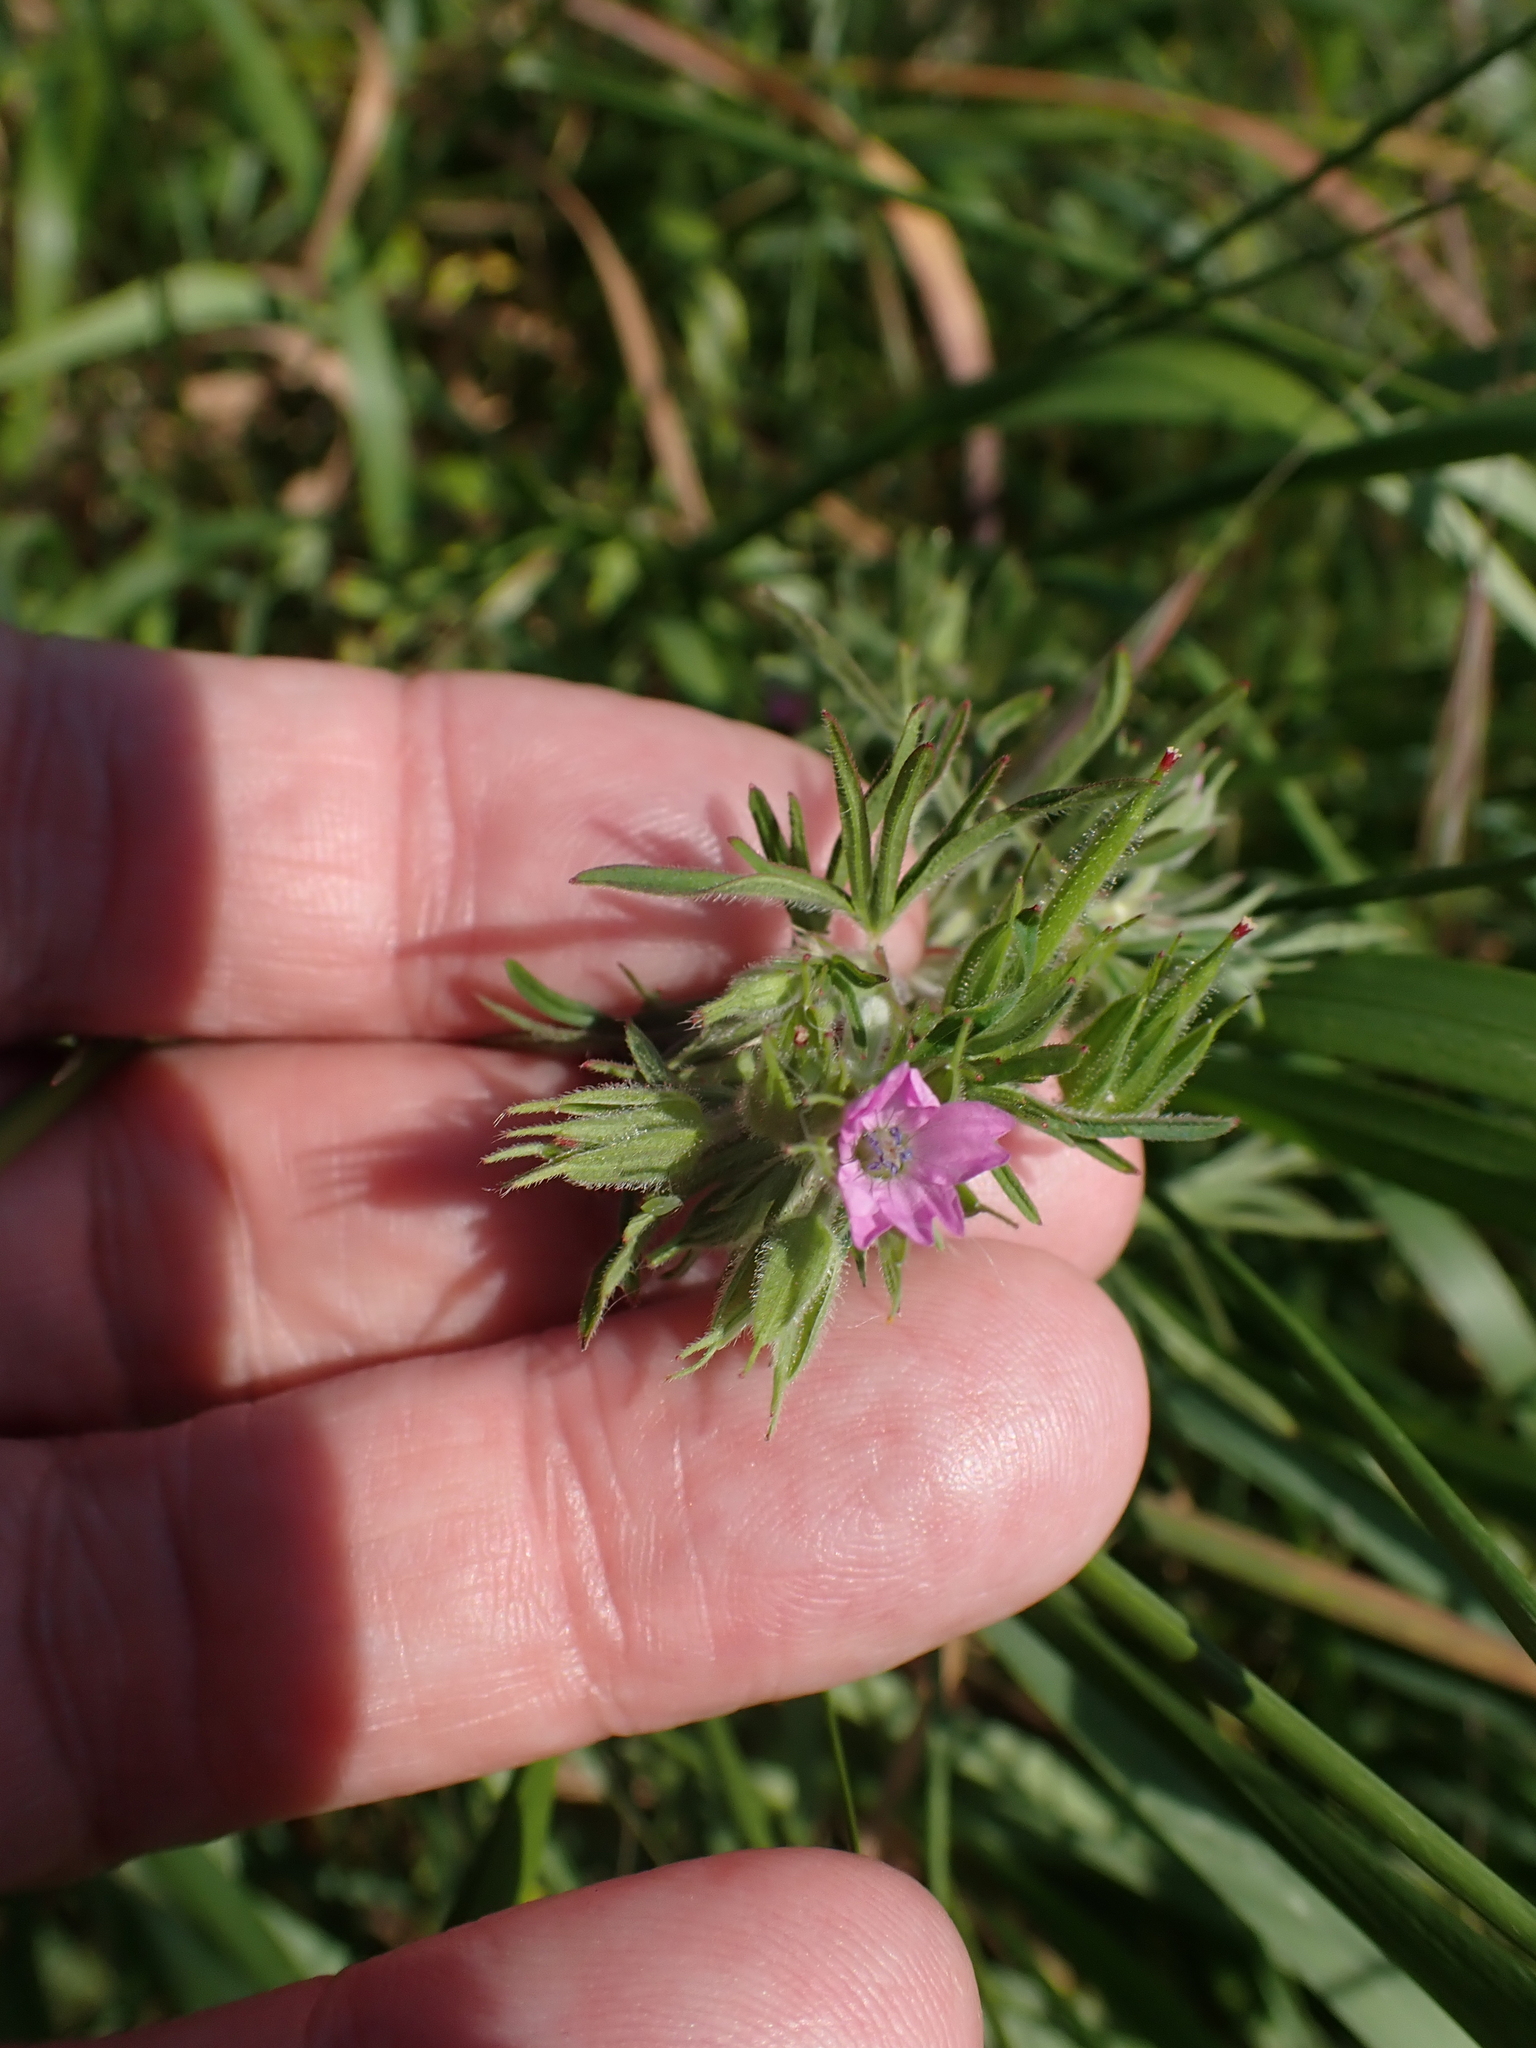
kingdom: Plantae
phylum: Tracheophyta
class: Magnoliopsida
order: Geraniales
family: Geraniaceae
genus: Geranium
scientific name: Geranium dissectum
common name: Cut-leaved crane's-bill
